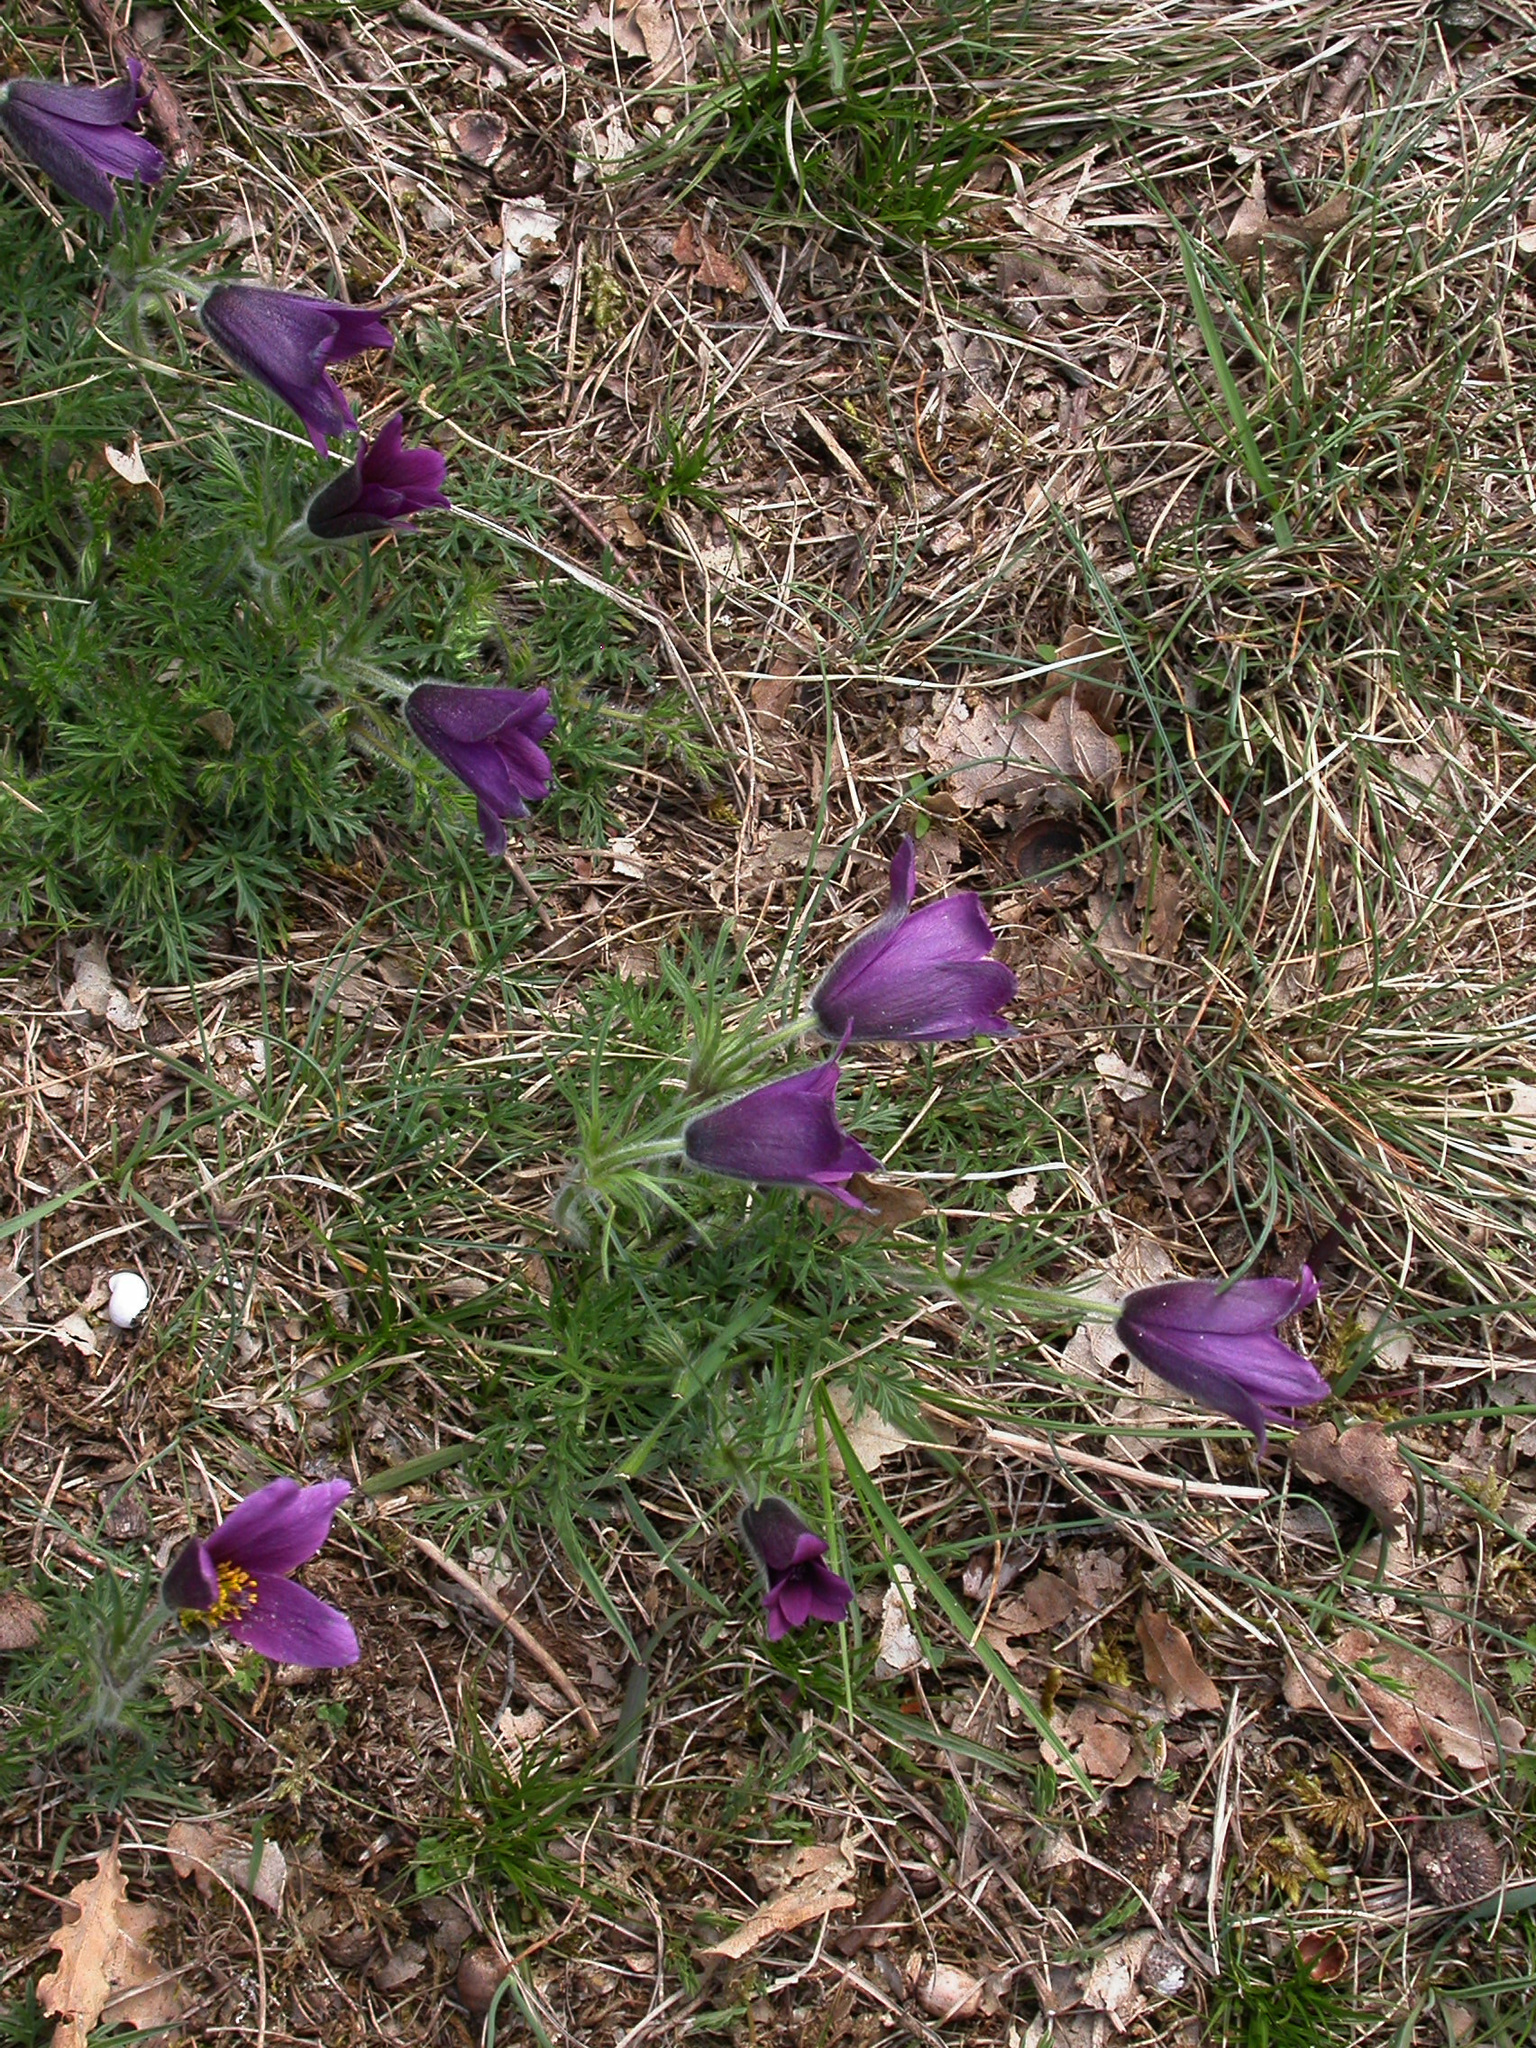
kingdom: Plantae
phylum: Tracheophyta
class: Magnoliopsida
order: Ranunculales
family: Ranunculaceae
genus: Pulsatilla
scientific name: Pulsatilla vulgaris
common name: Pasqueflower
